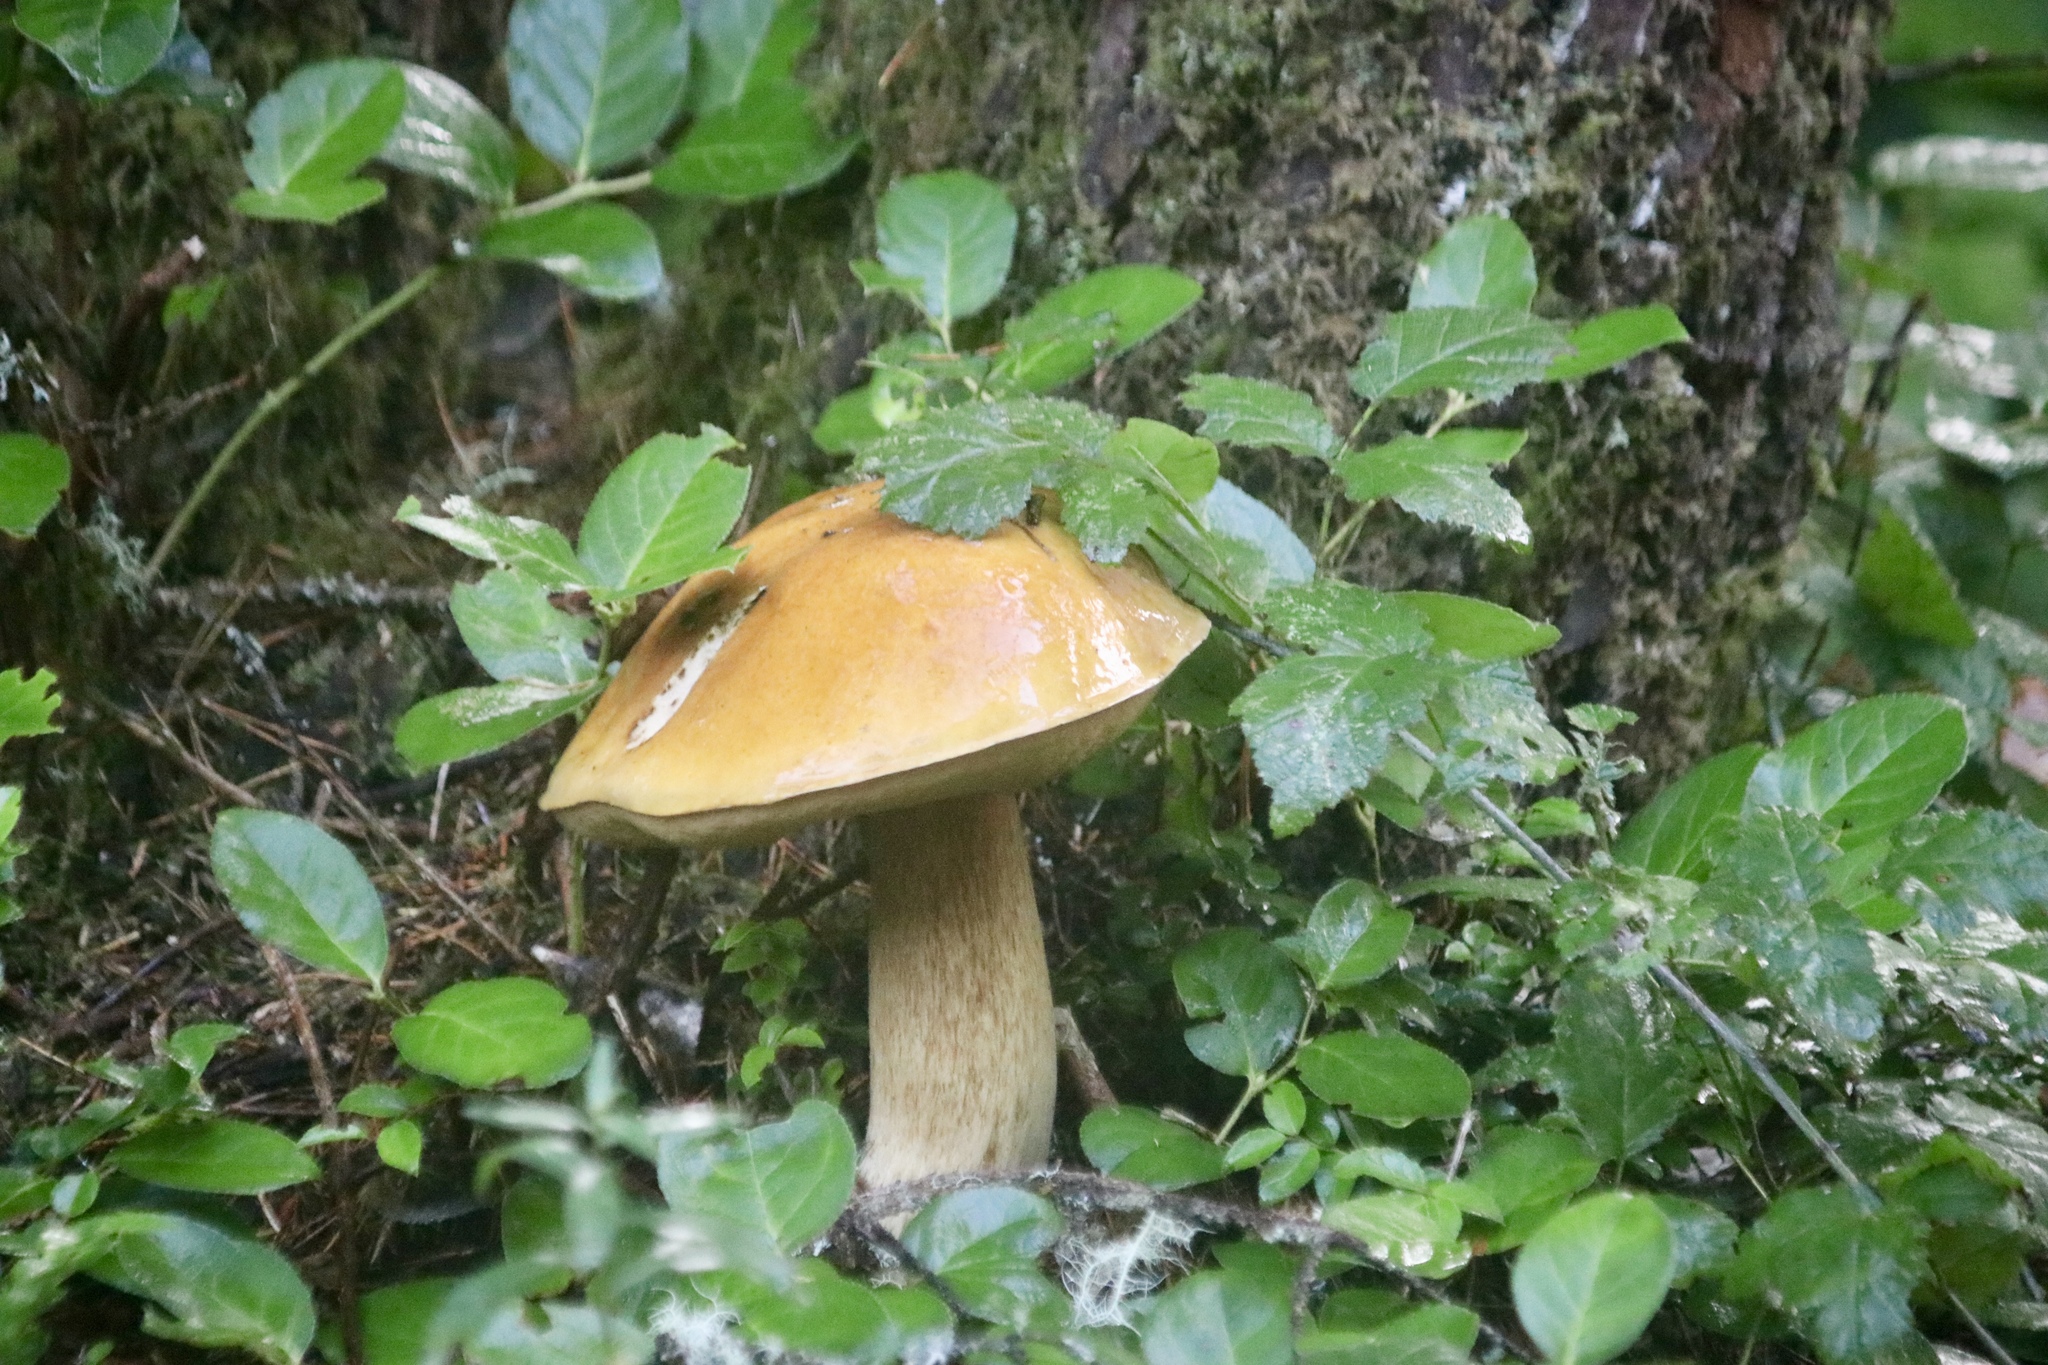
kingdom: Fungi
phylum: Basidiomycota
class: Agaricomycetes
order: Boletales
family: Boletaceae
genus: Boletus
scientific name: Boletus edulis
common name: Cep
